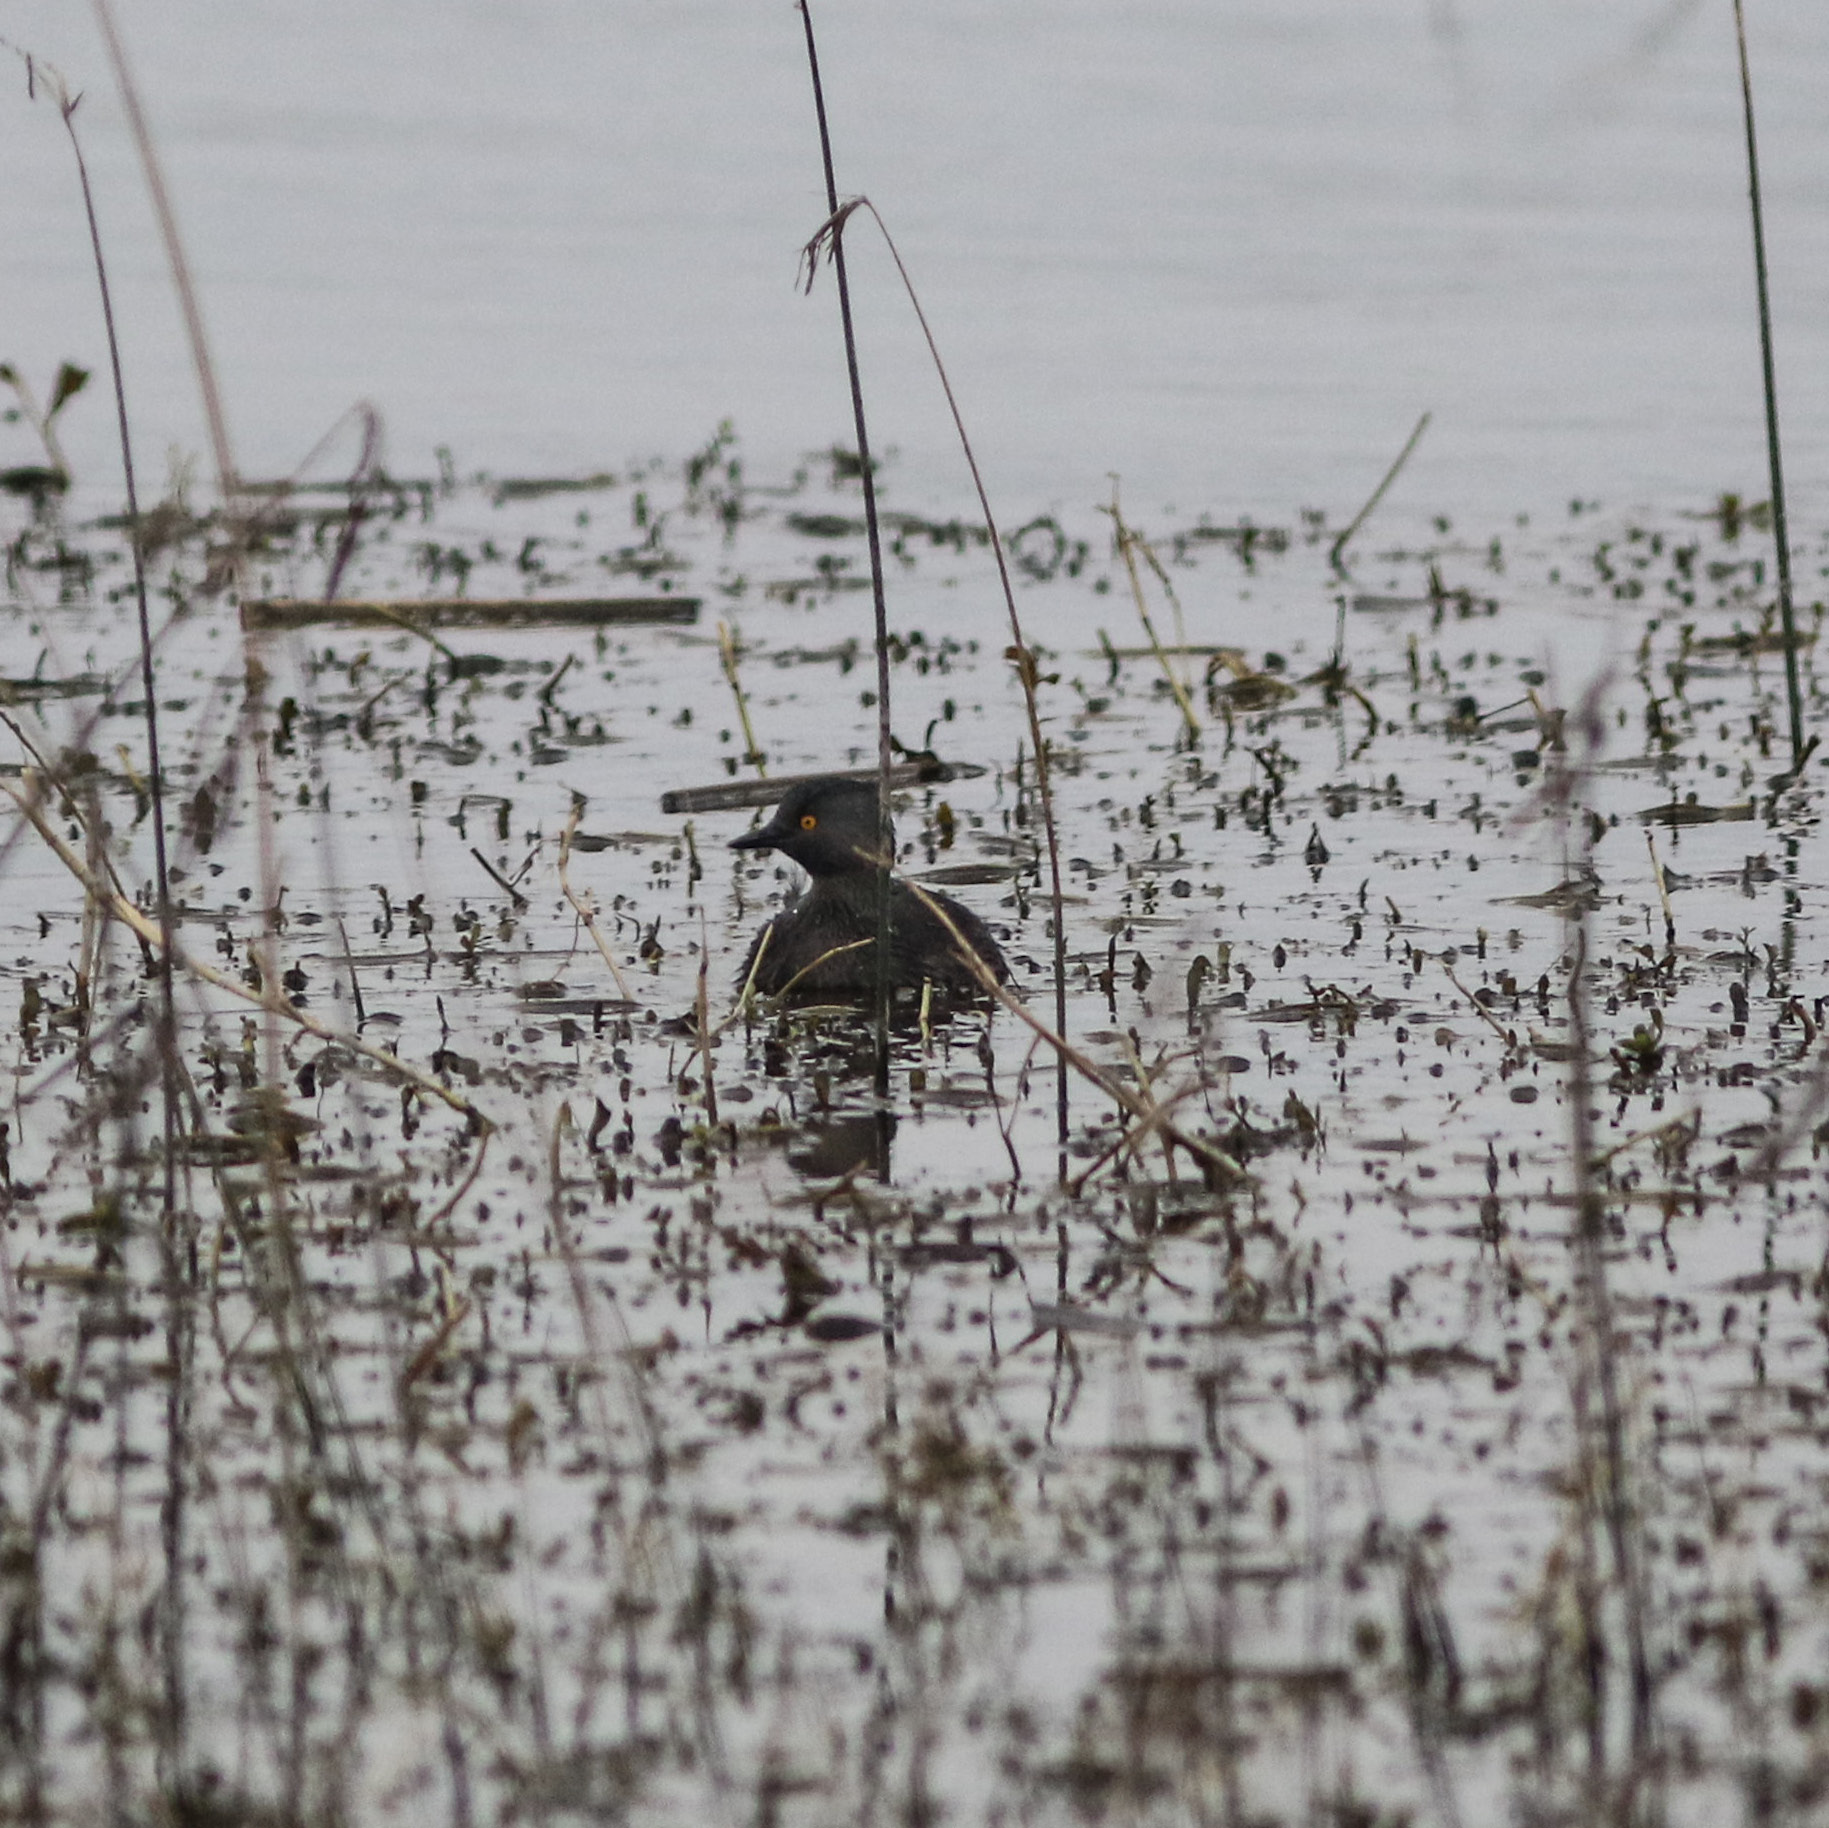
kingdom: Animalia
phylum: Chordata
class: Aves
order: Podicipediformes
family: Podicipedidae
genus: Tachybaptus
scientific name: Tachybaptus dominicus
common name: Least grebe
